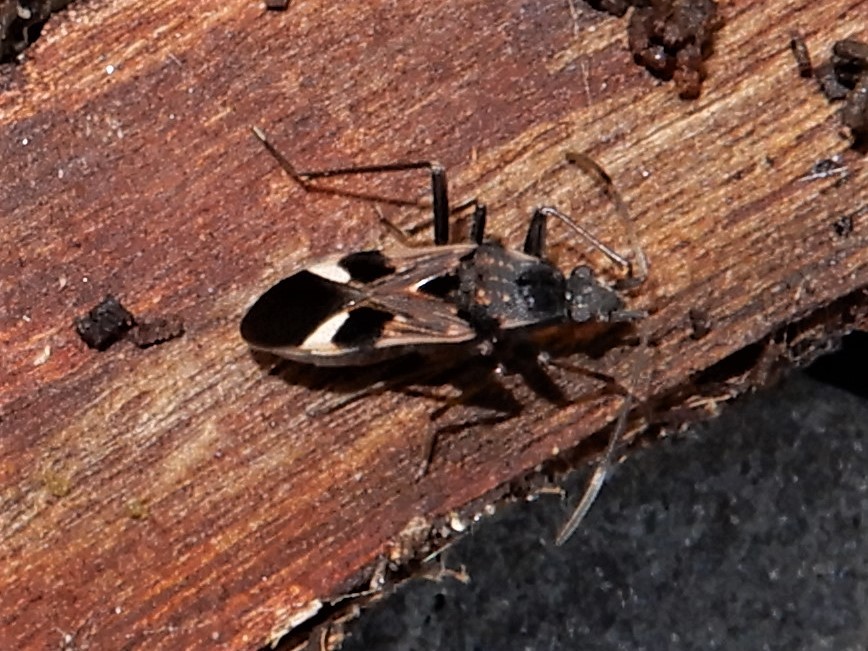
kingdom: Animalia
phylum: Arthropoda
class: Insecta
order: Hemiptera
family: Rhyparochromidae
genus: Dieuches
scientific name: Dieuches notatus
